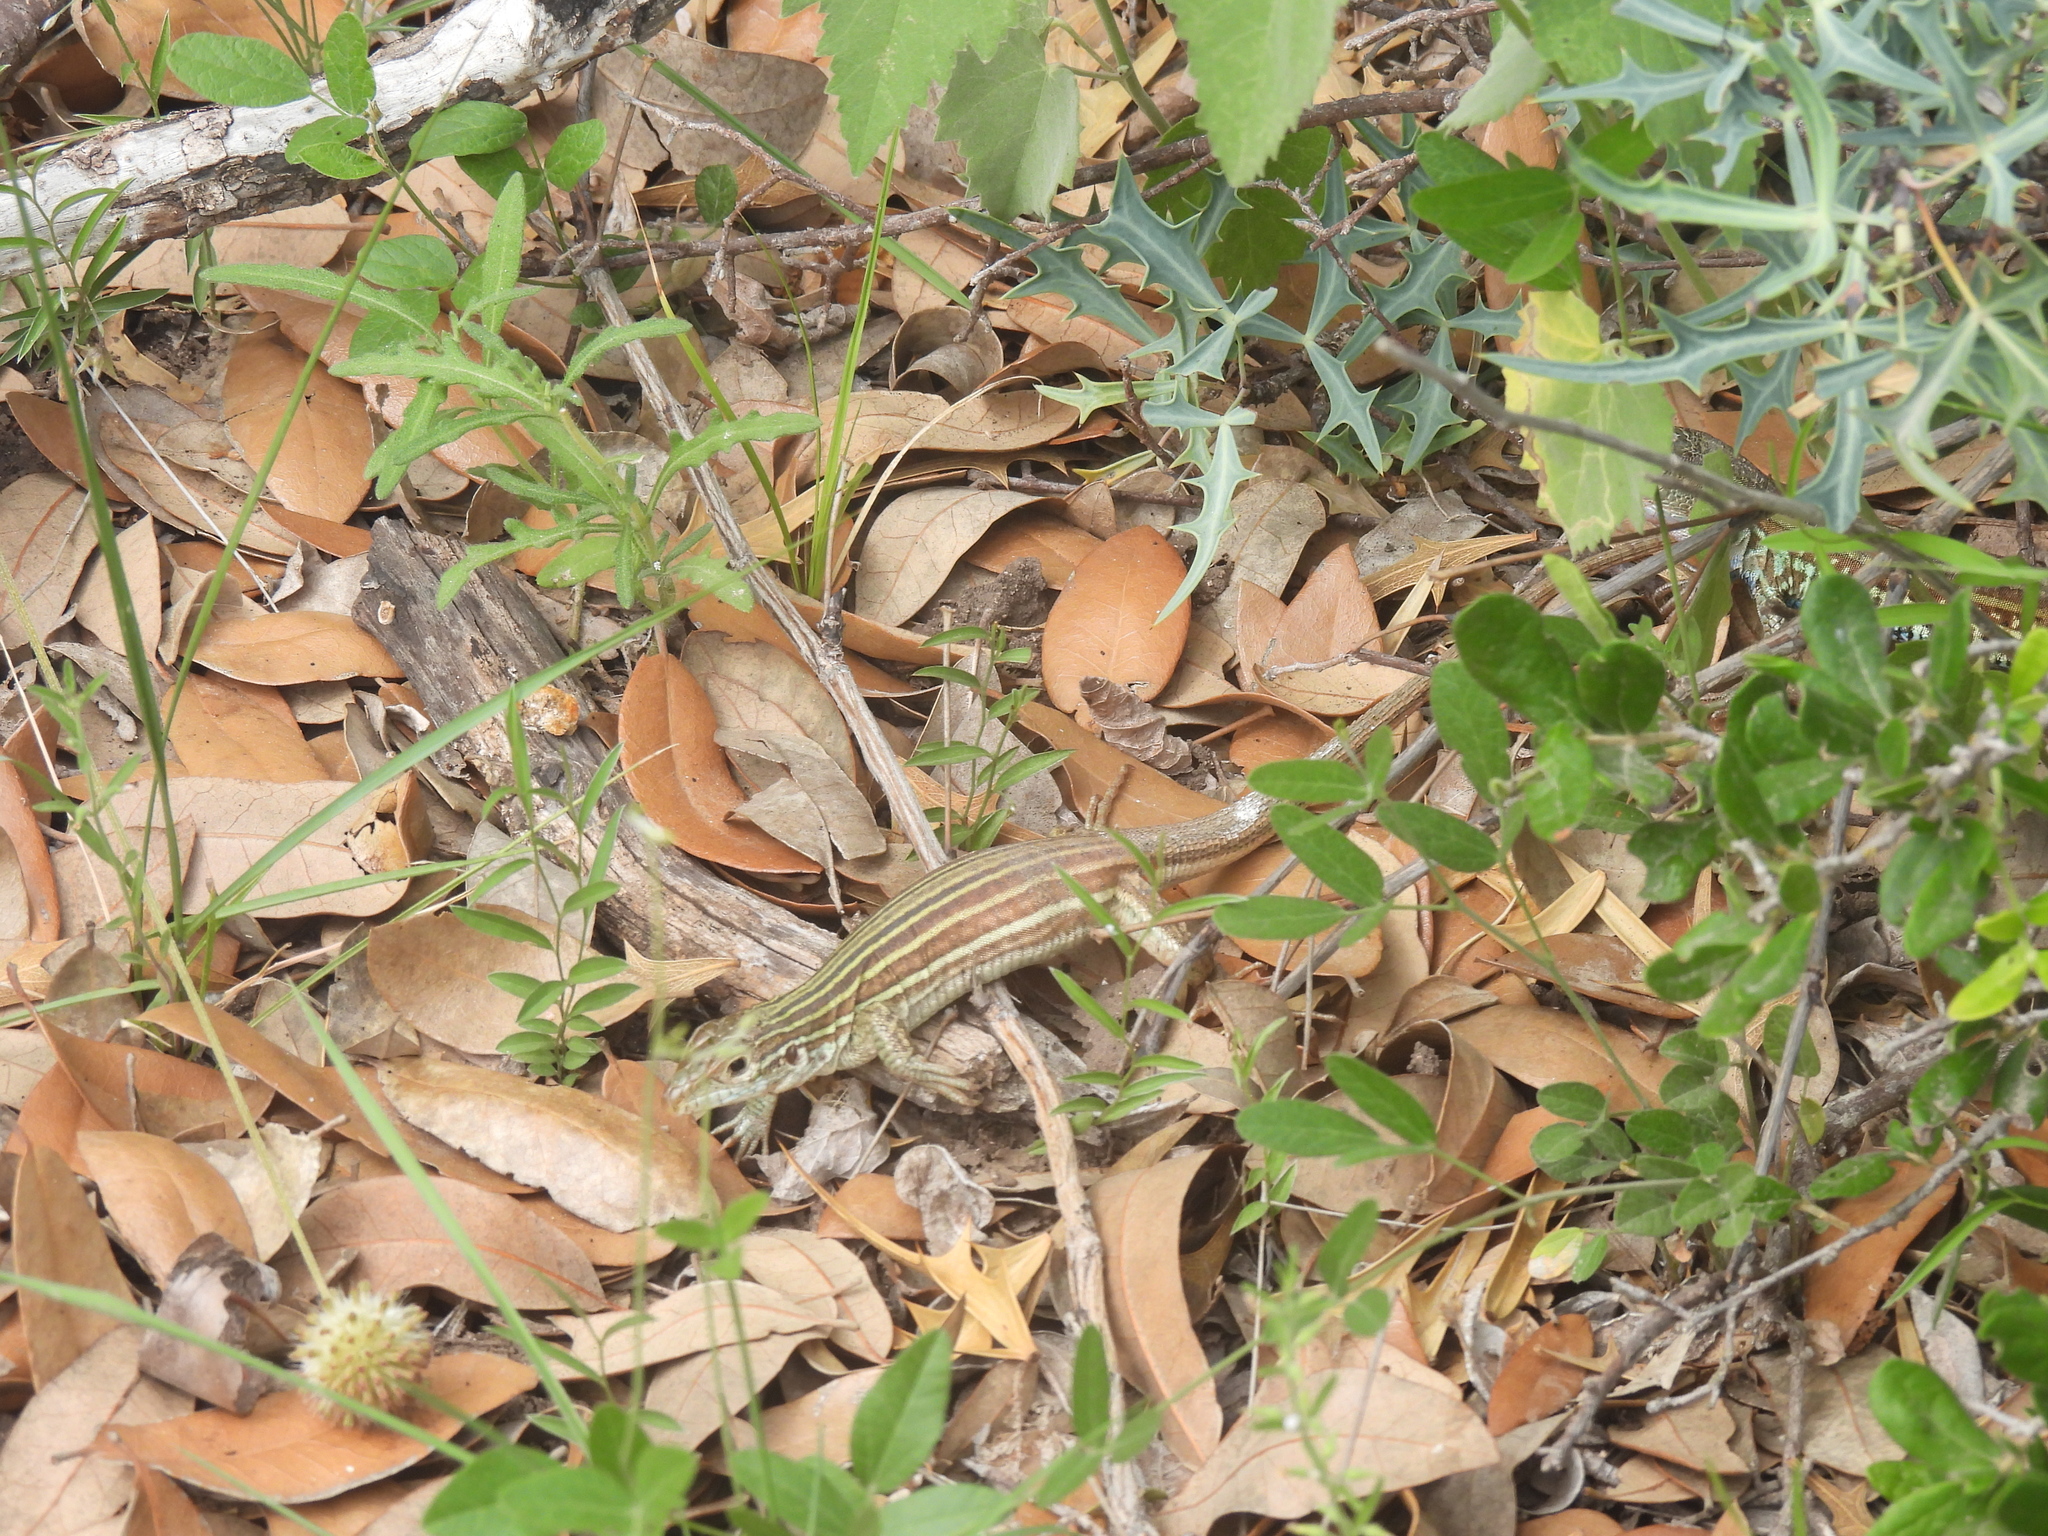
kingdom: Animalia
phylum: Chordata
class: Squamata
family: Teiidae
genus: Aspidoscelis
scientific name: Aspidoscelis gularis
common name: Eastern spotted whiptail
